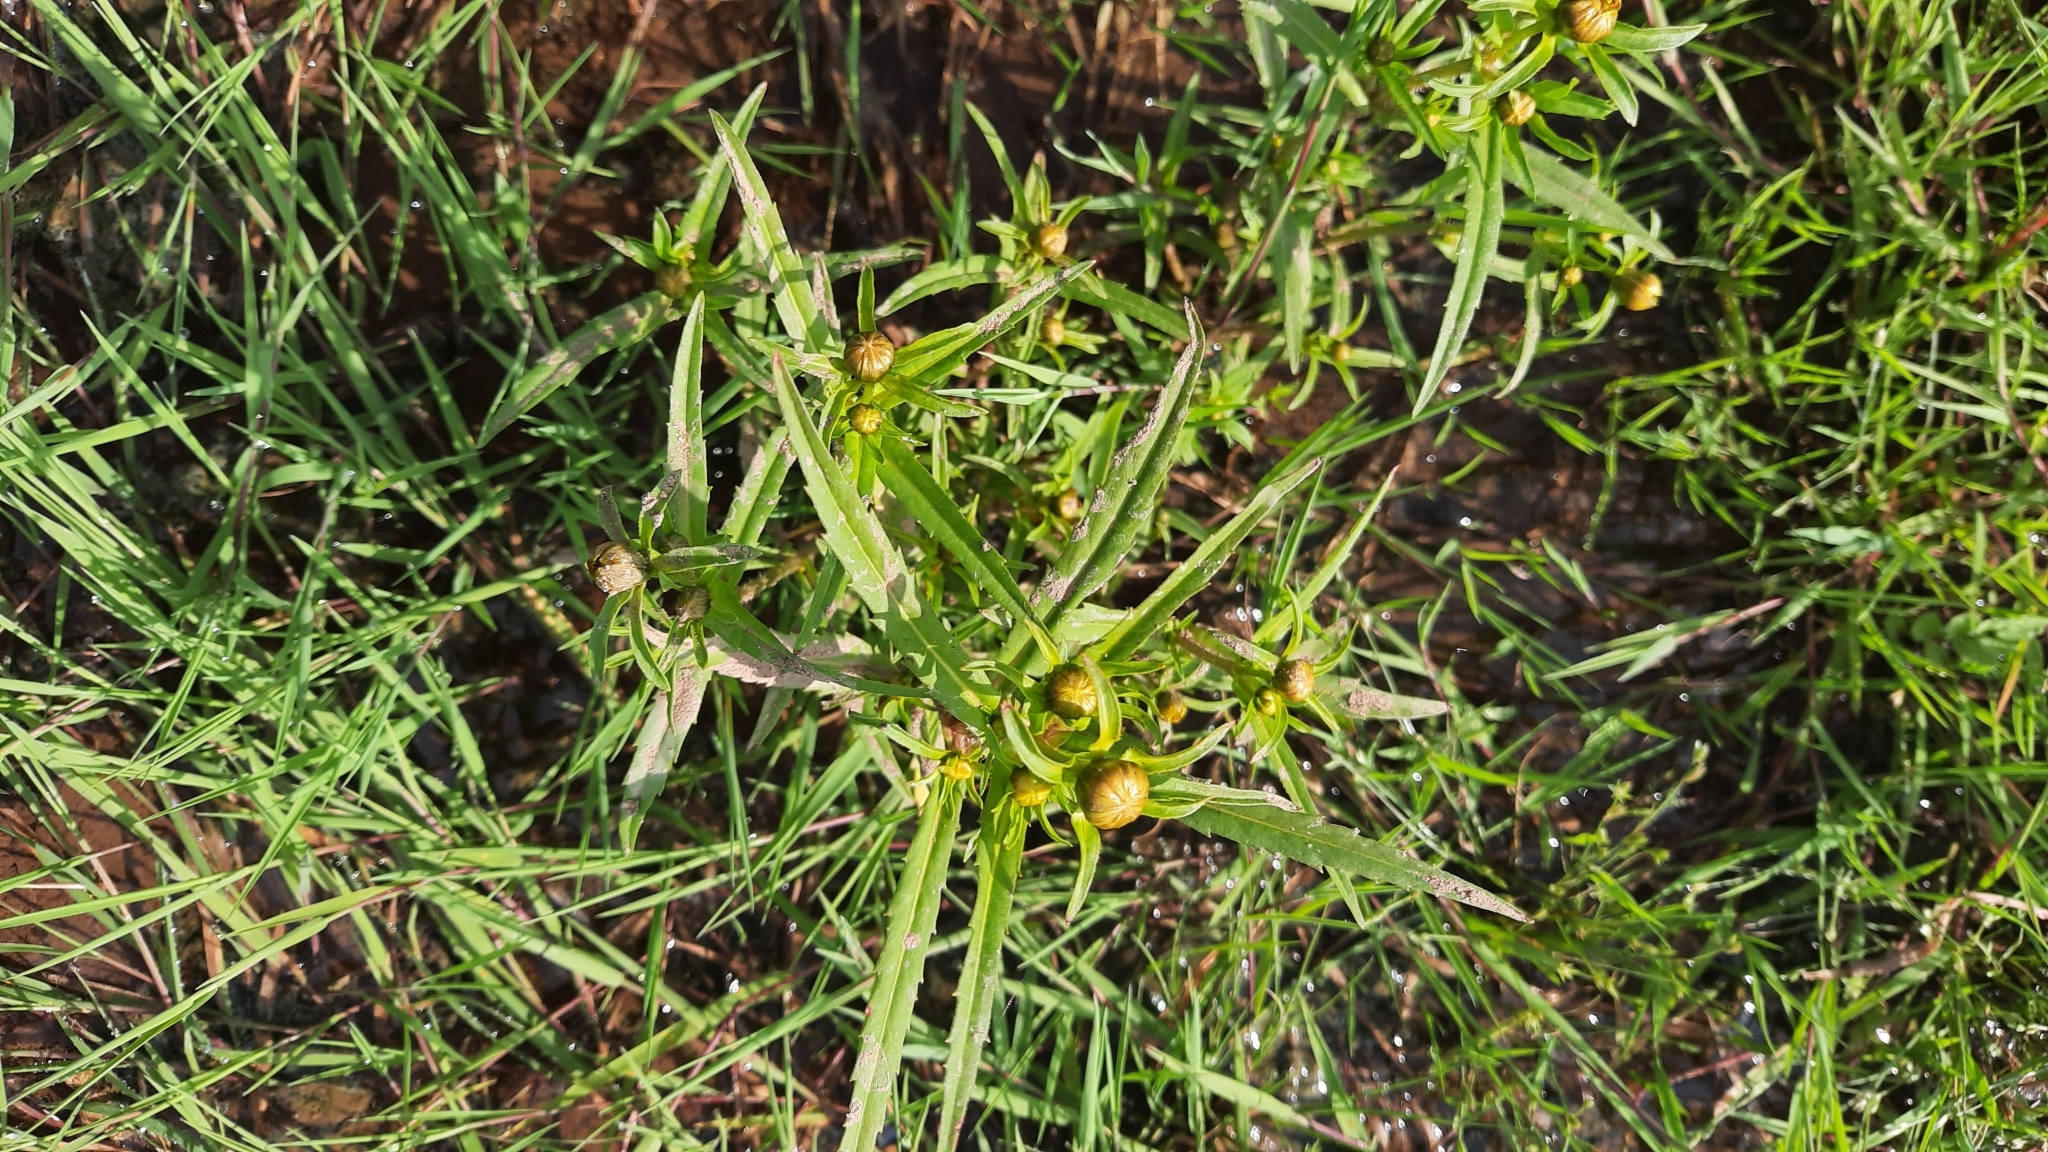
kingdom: Plantae
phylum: Tracheophyta
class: Magnoliopsida
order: Asterales
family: Asteraceae
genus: Bidens
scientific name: Bidens cernua
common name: Nodding bur-marigold
